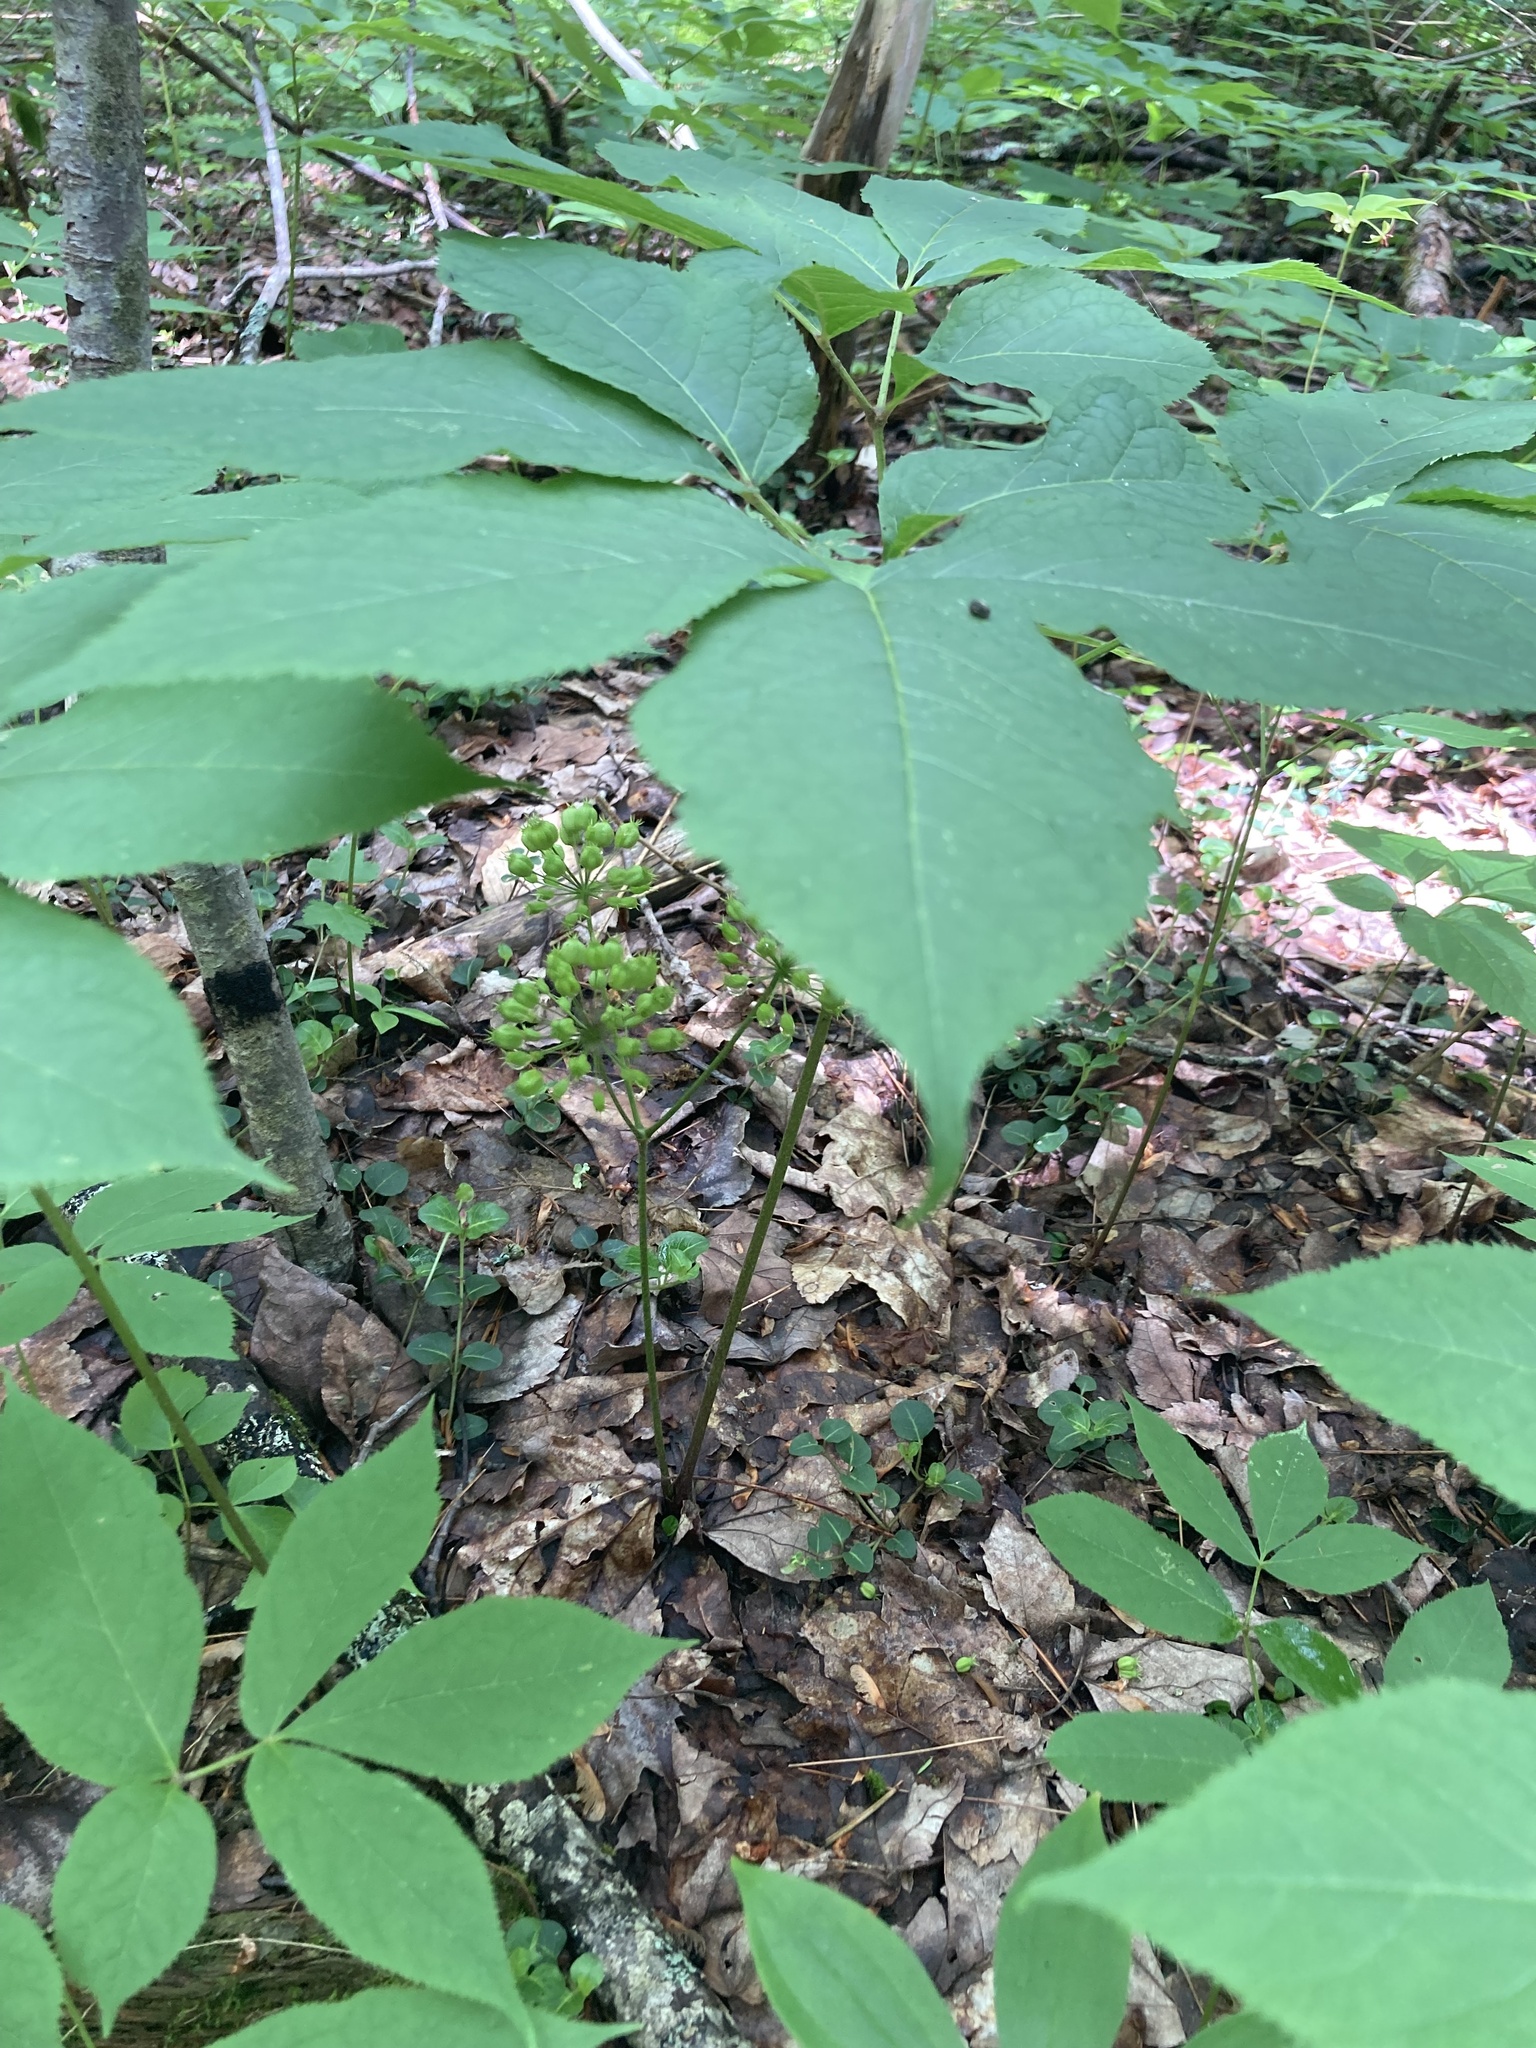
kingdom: Plantae
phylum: Tracheophyta
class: Magnoliopsida
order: Apiales
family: Araliaceae
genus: Aralia
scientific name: Aralia nudicaulis
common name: Wild sarsaparilla
